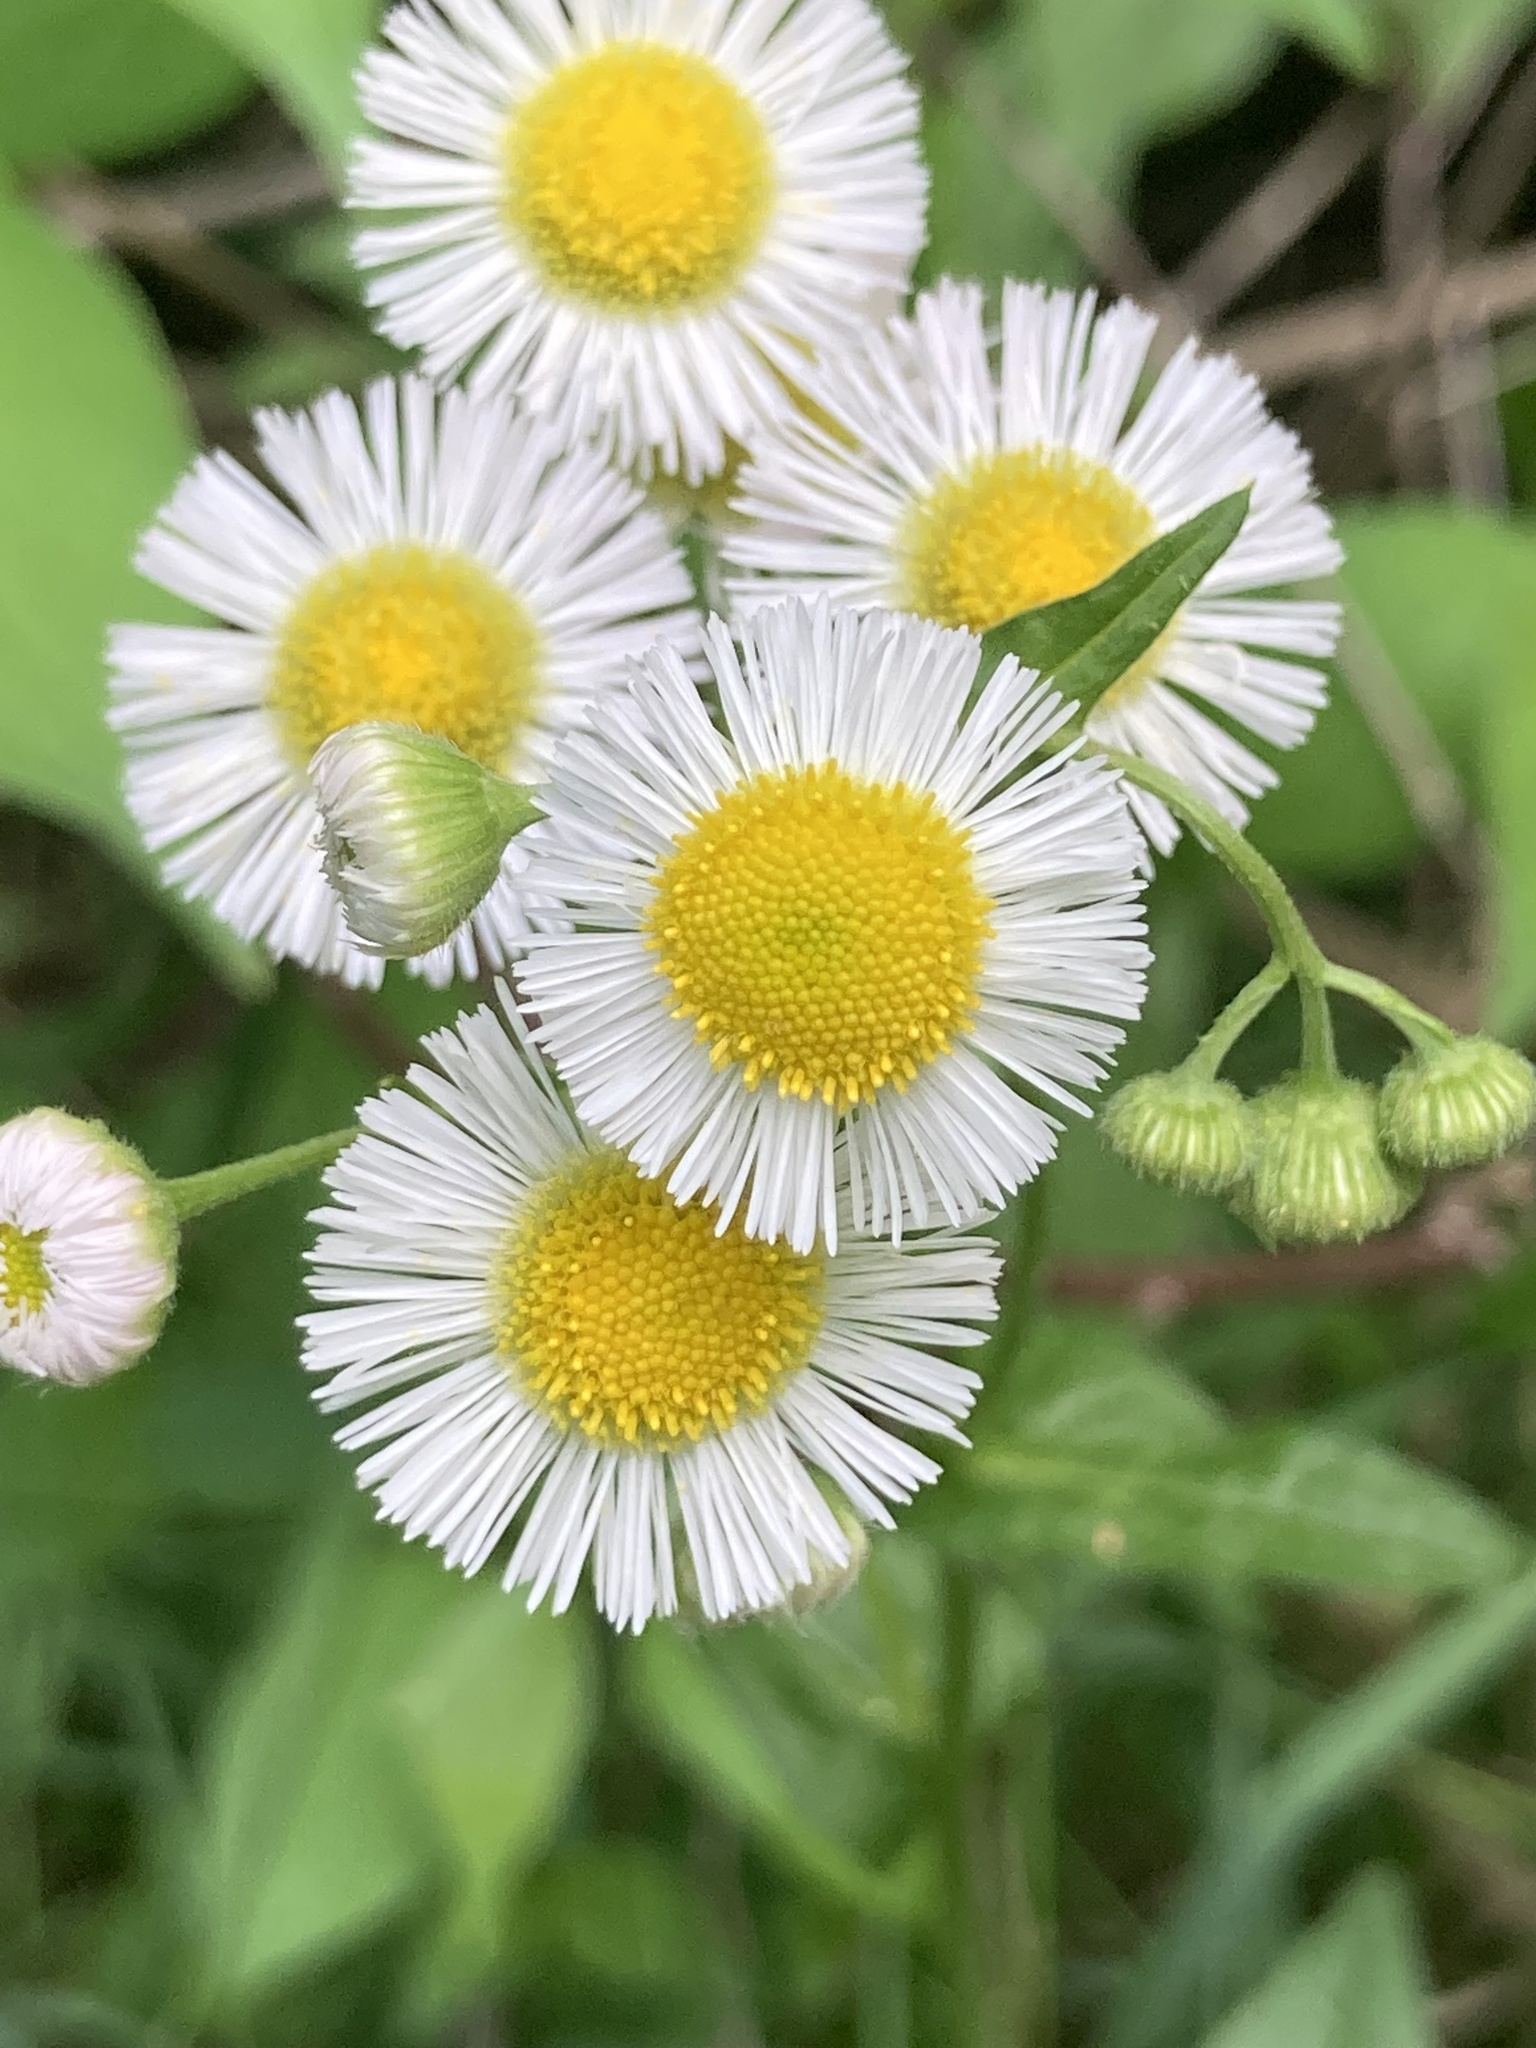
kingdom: Plantae
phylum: Tracheophyta
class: Magnoliopsida
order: Asterales
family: Asteraceae
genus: Erigeron
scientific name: Erigeron philadelphicus
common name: Robin's-plantain
